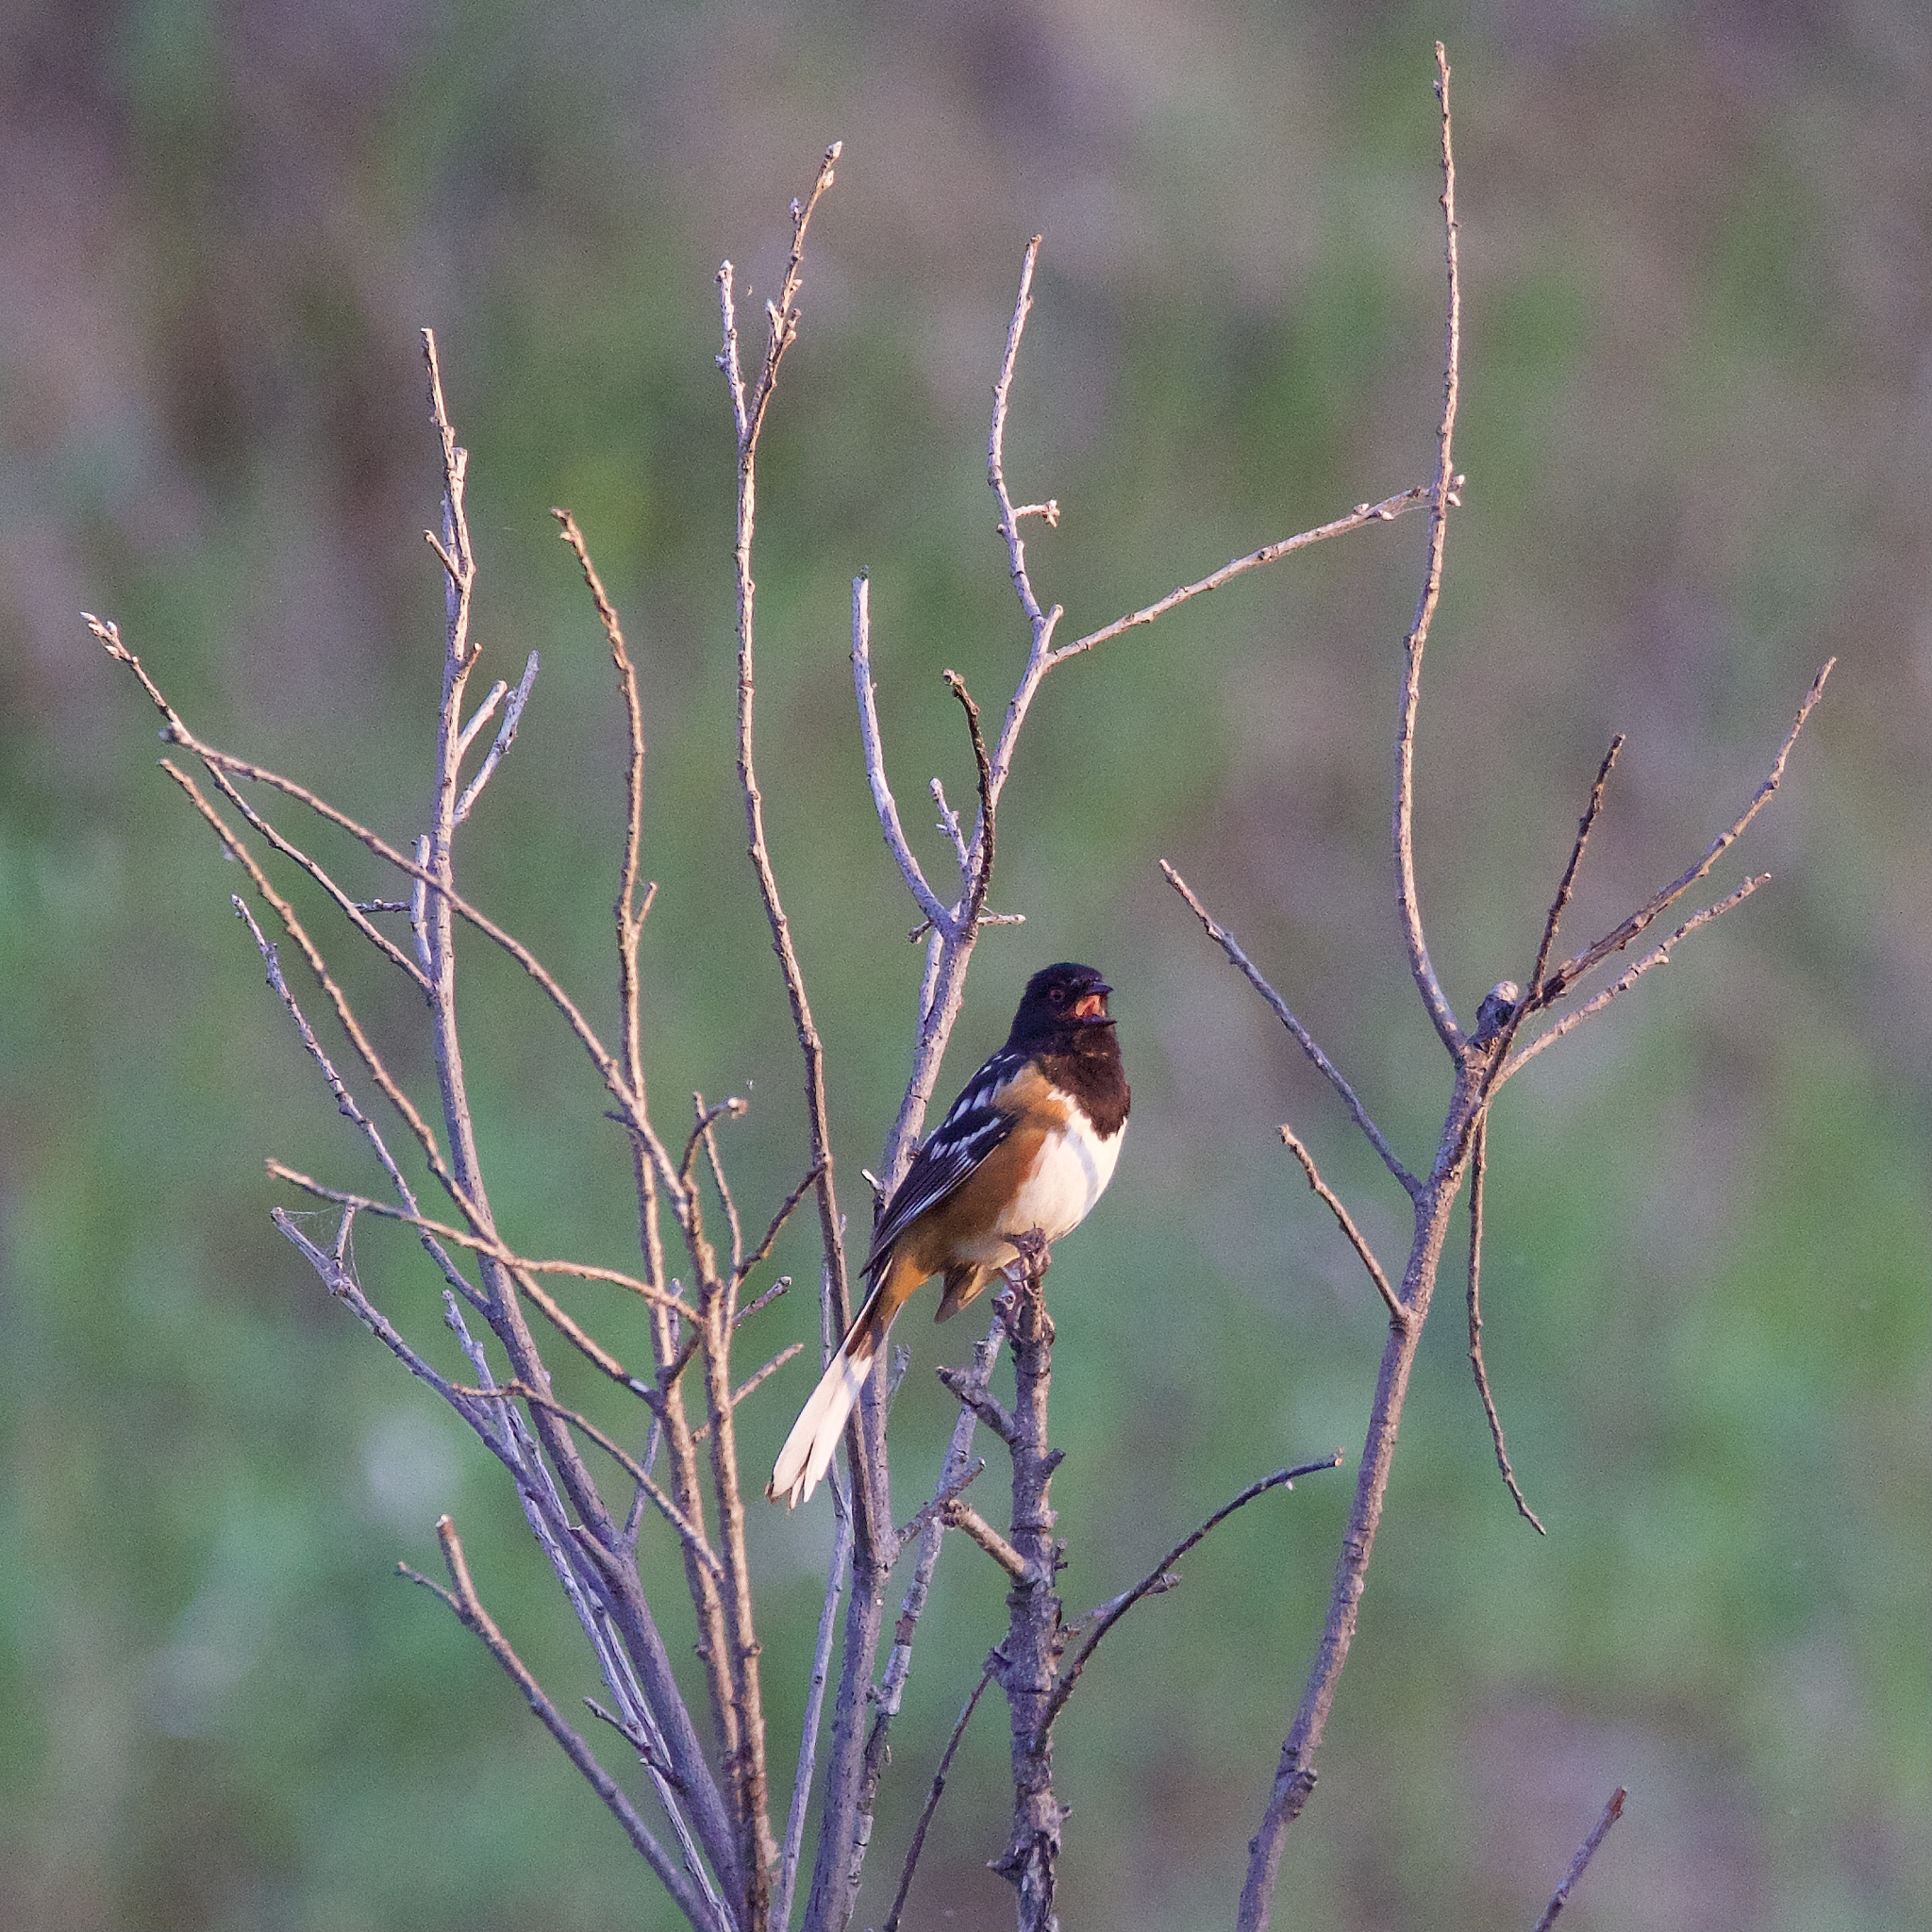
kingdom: Animalia
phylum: Chordata
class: Aves
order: Passeriformes
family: Passerellidae
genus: Pipilo
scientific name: Pipilo maculatus
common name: Spotted towhee
